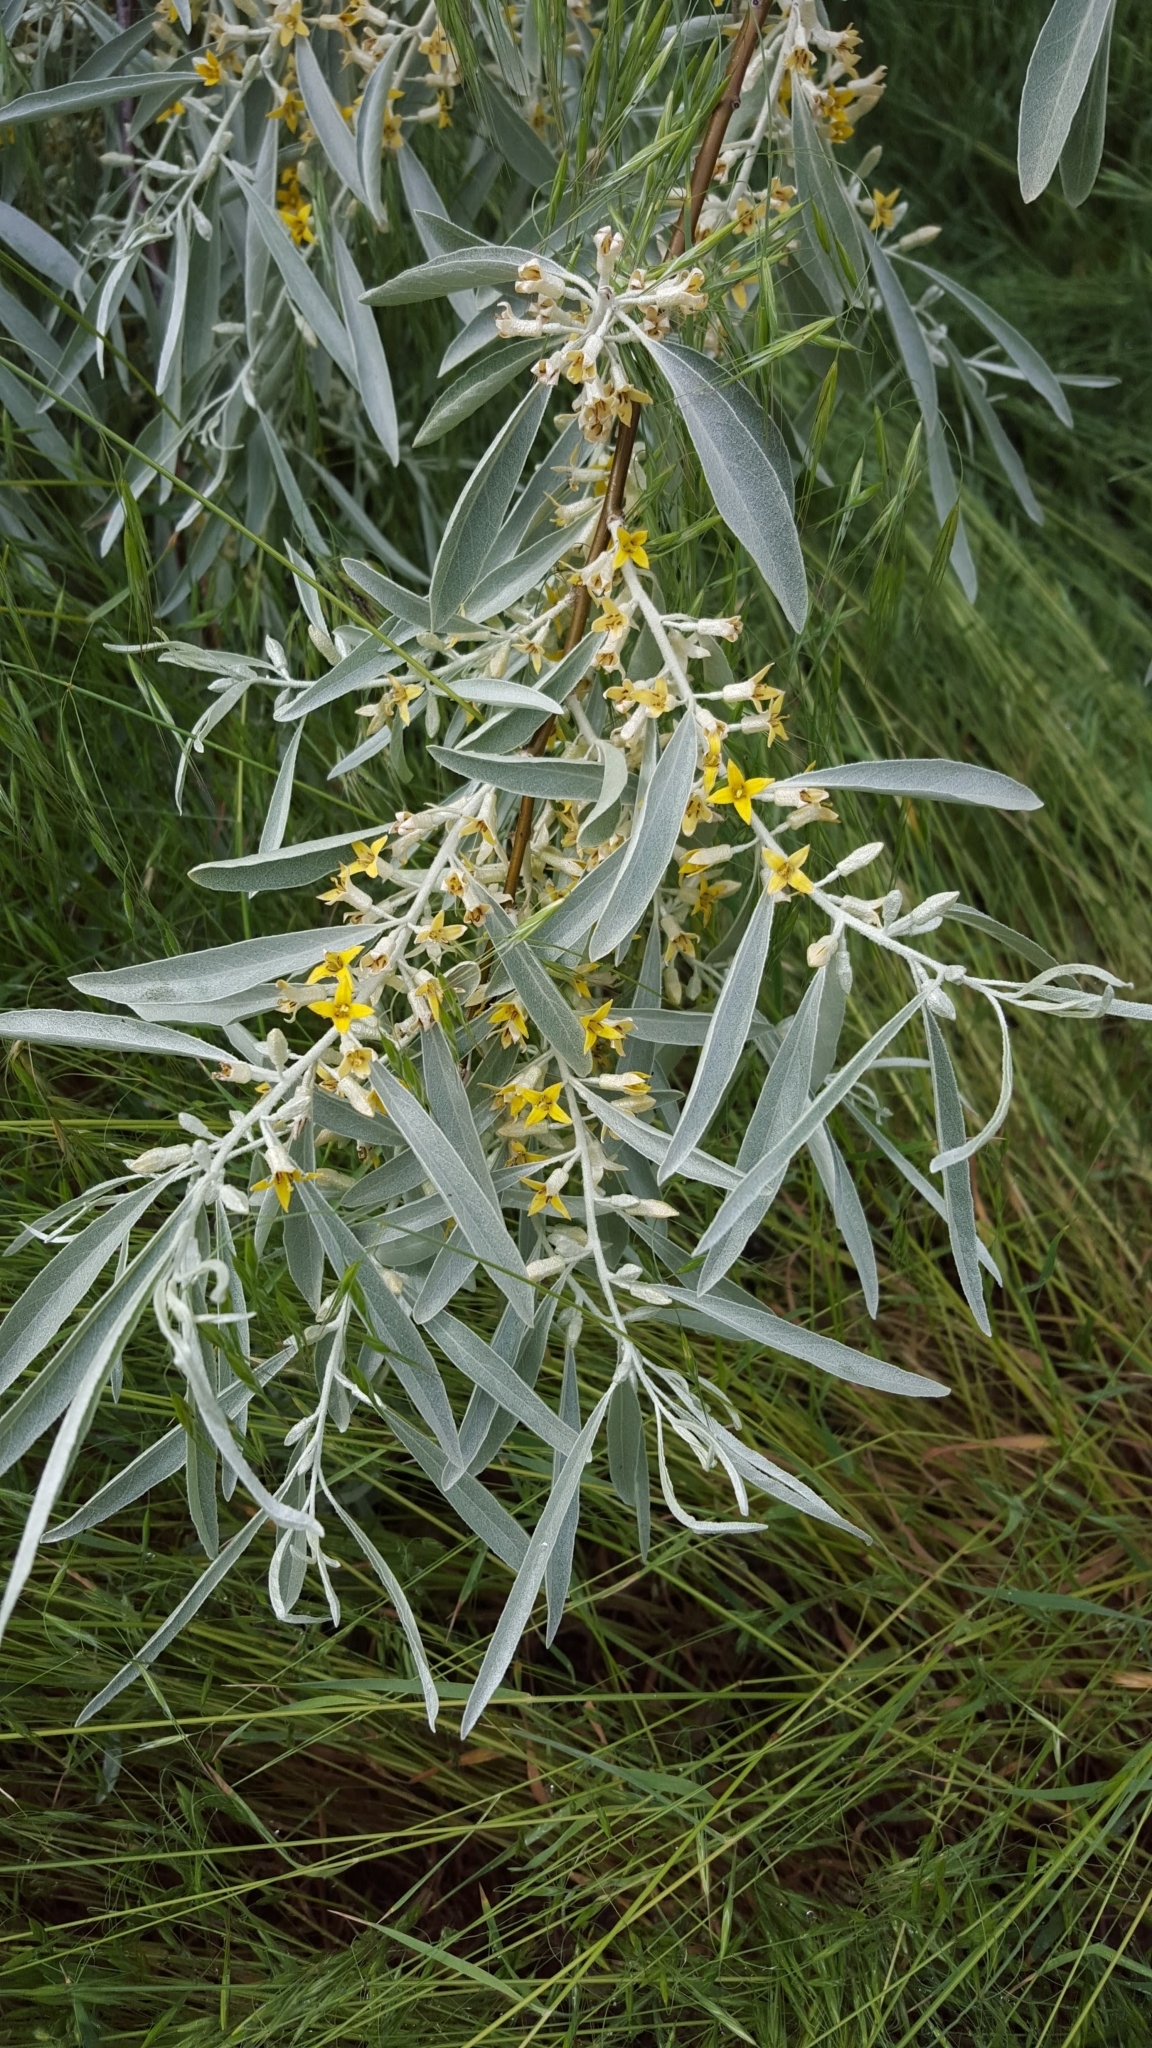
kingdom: Plantae
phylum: Tracheophyta
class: Magnoliopsida
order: Rosales
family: Elaeagnaceae
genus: Elaeagnus
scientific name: Elaeagnus angustifolia
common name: Russian olive
